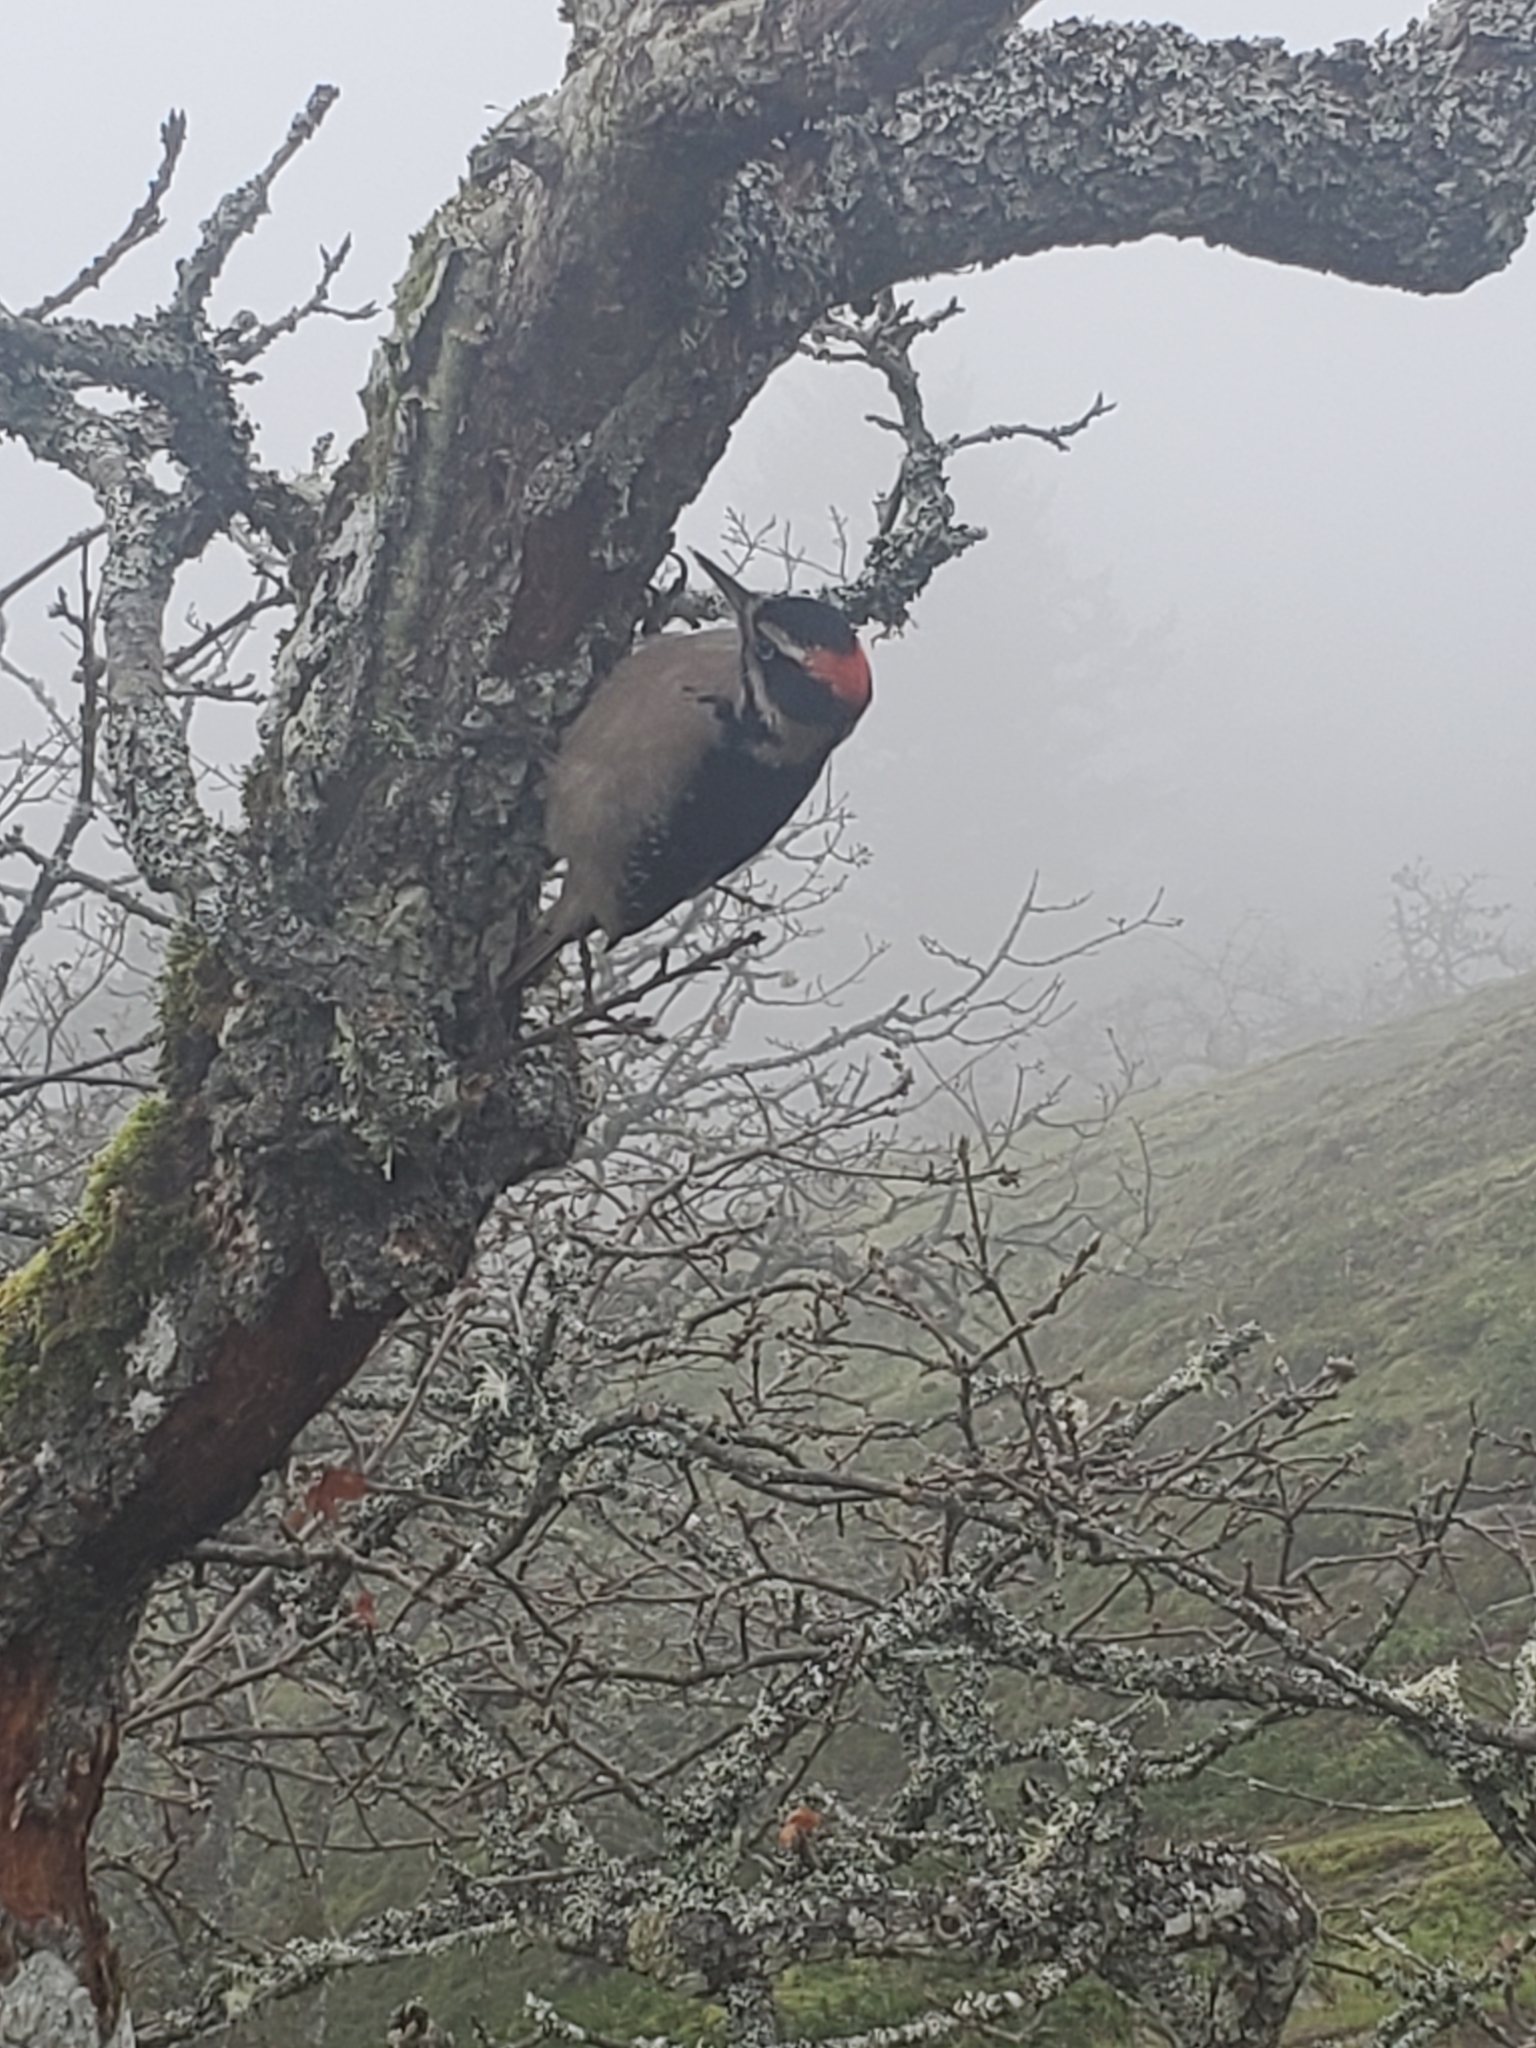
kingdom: Animalia
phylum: Chordata
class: Aves
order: Piciformes
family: Picidae
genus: Leuconotopicus
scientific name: Leuconotopicus villosus
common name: Hairy woodpecker
